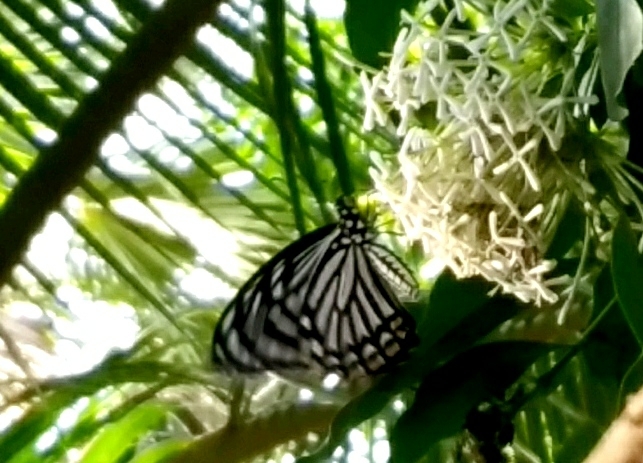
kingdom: Animalia
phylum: Arthropoda
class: Insecta
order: Lepidoptera
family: Papilionidae
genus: Chilasa
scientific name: Chilasa clytia
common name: Common mime
